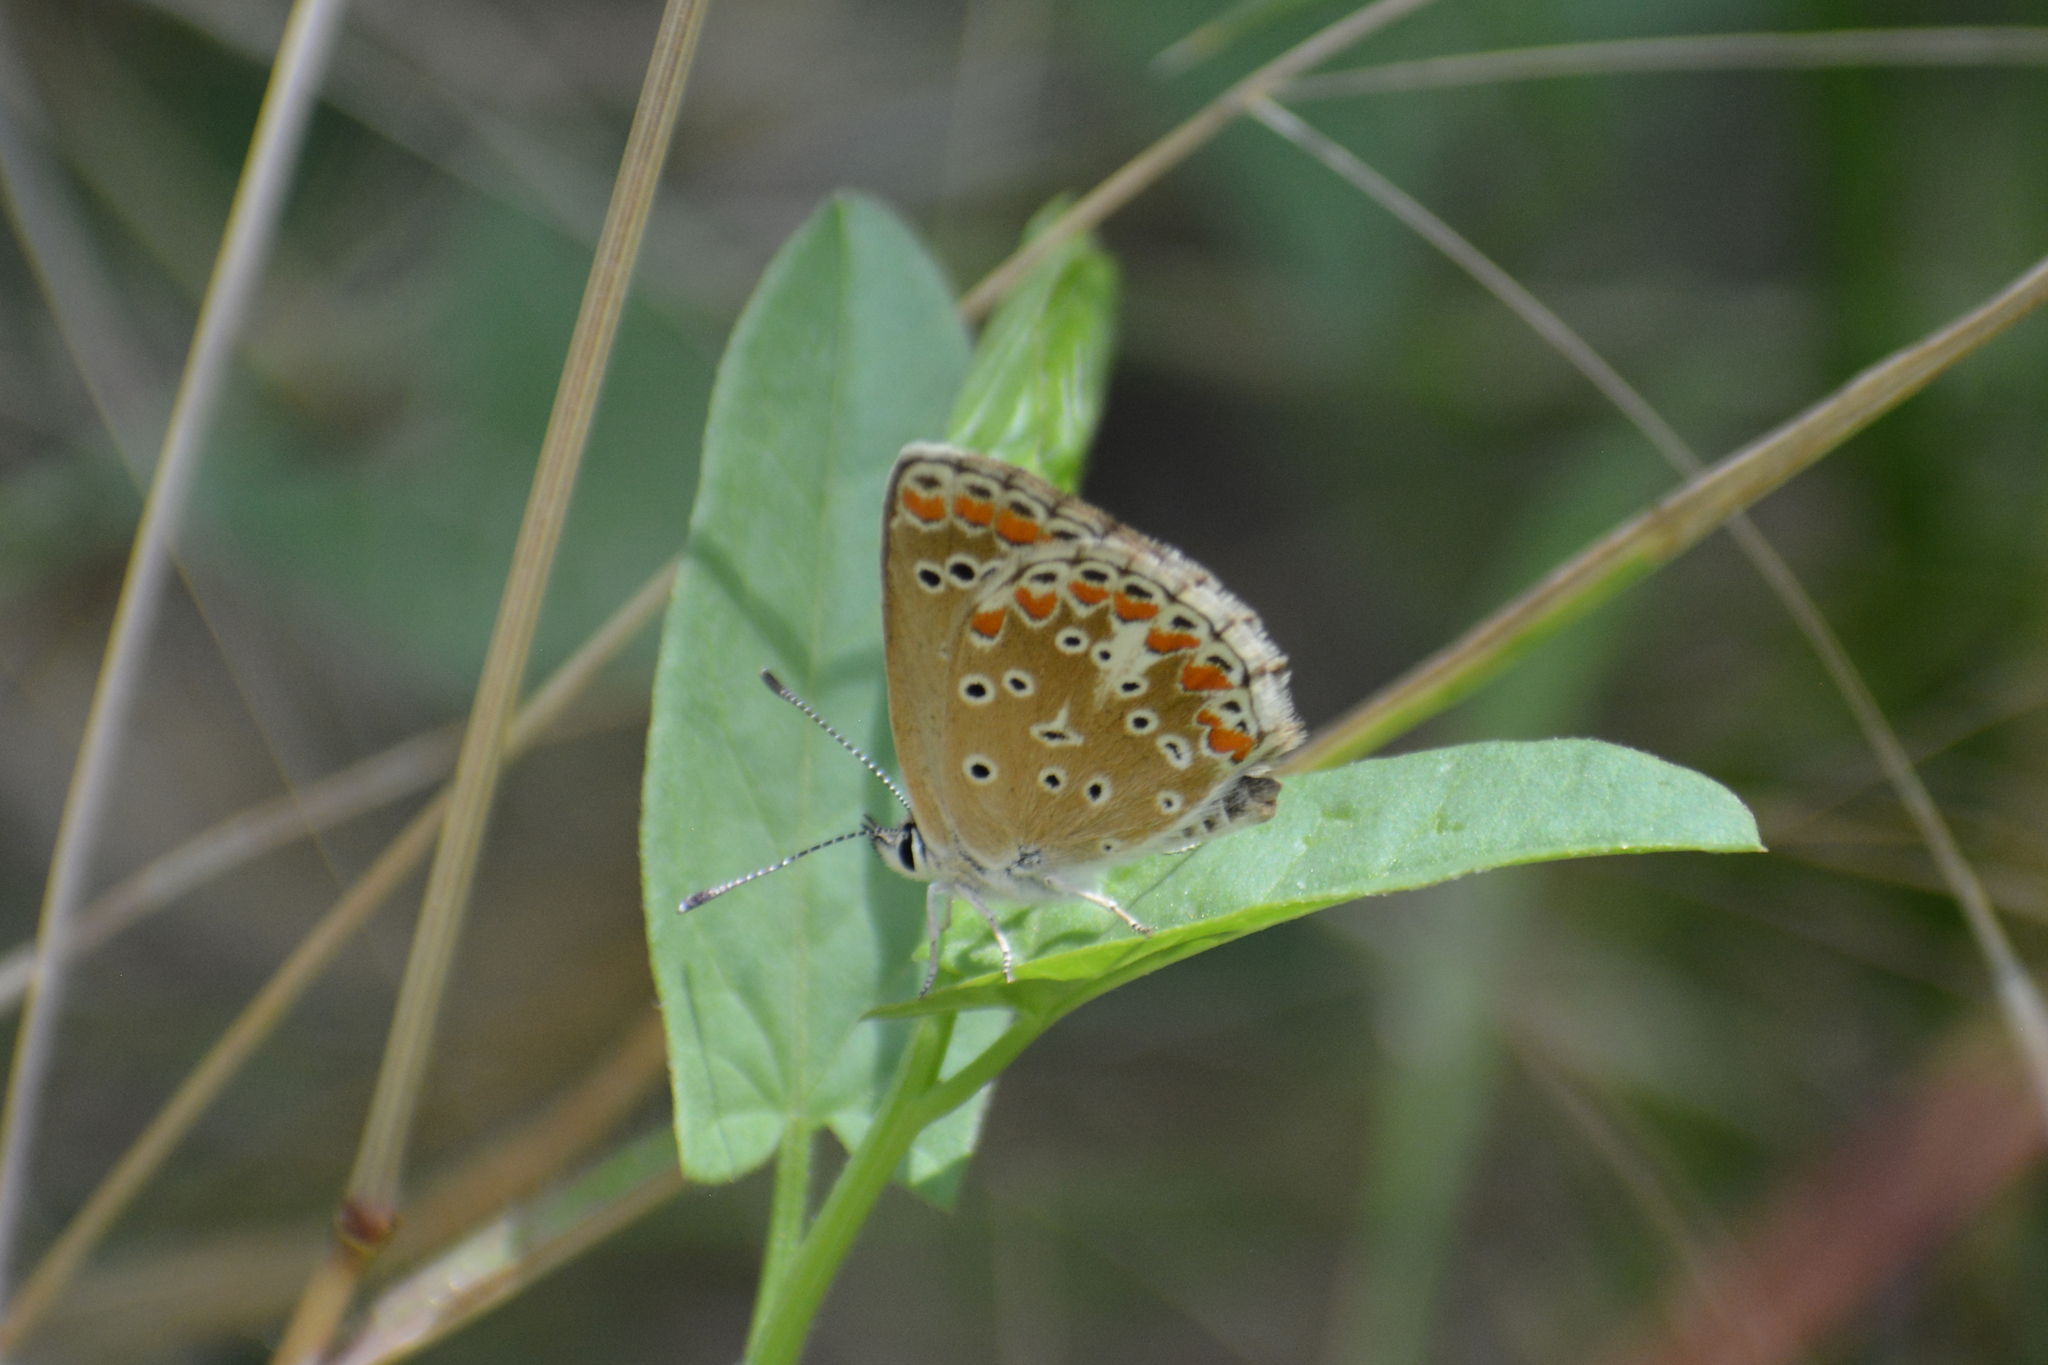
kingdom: Animalia
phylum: Arthropoda
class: Insecta
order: Lepidoptera
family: Lycaenidae
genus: Aricia
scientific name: Aricia agestis
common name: Brown argus
